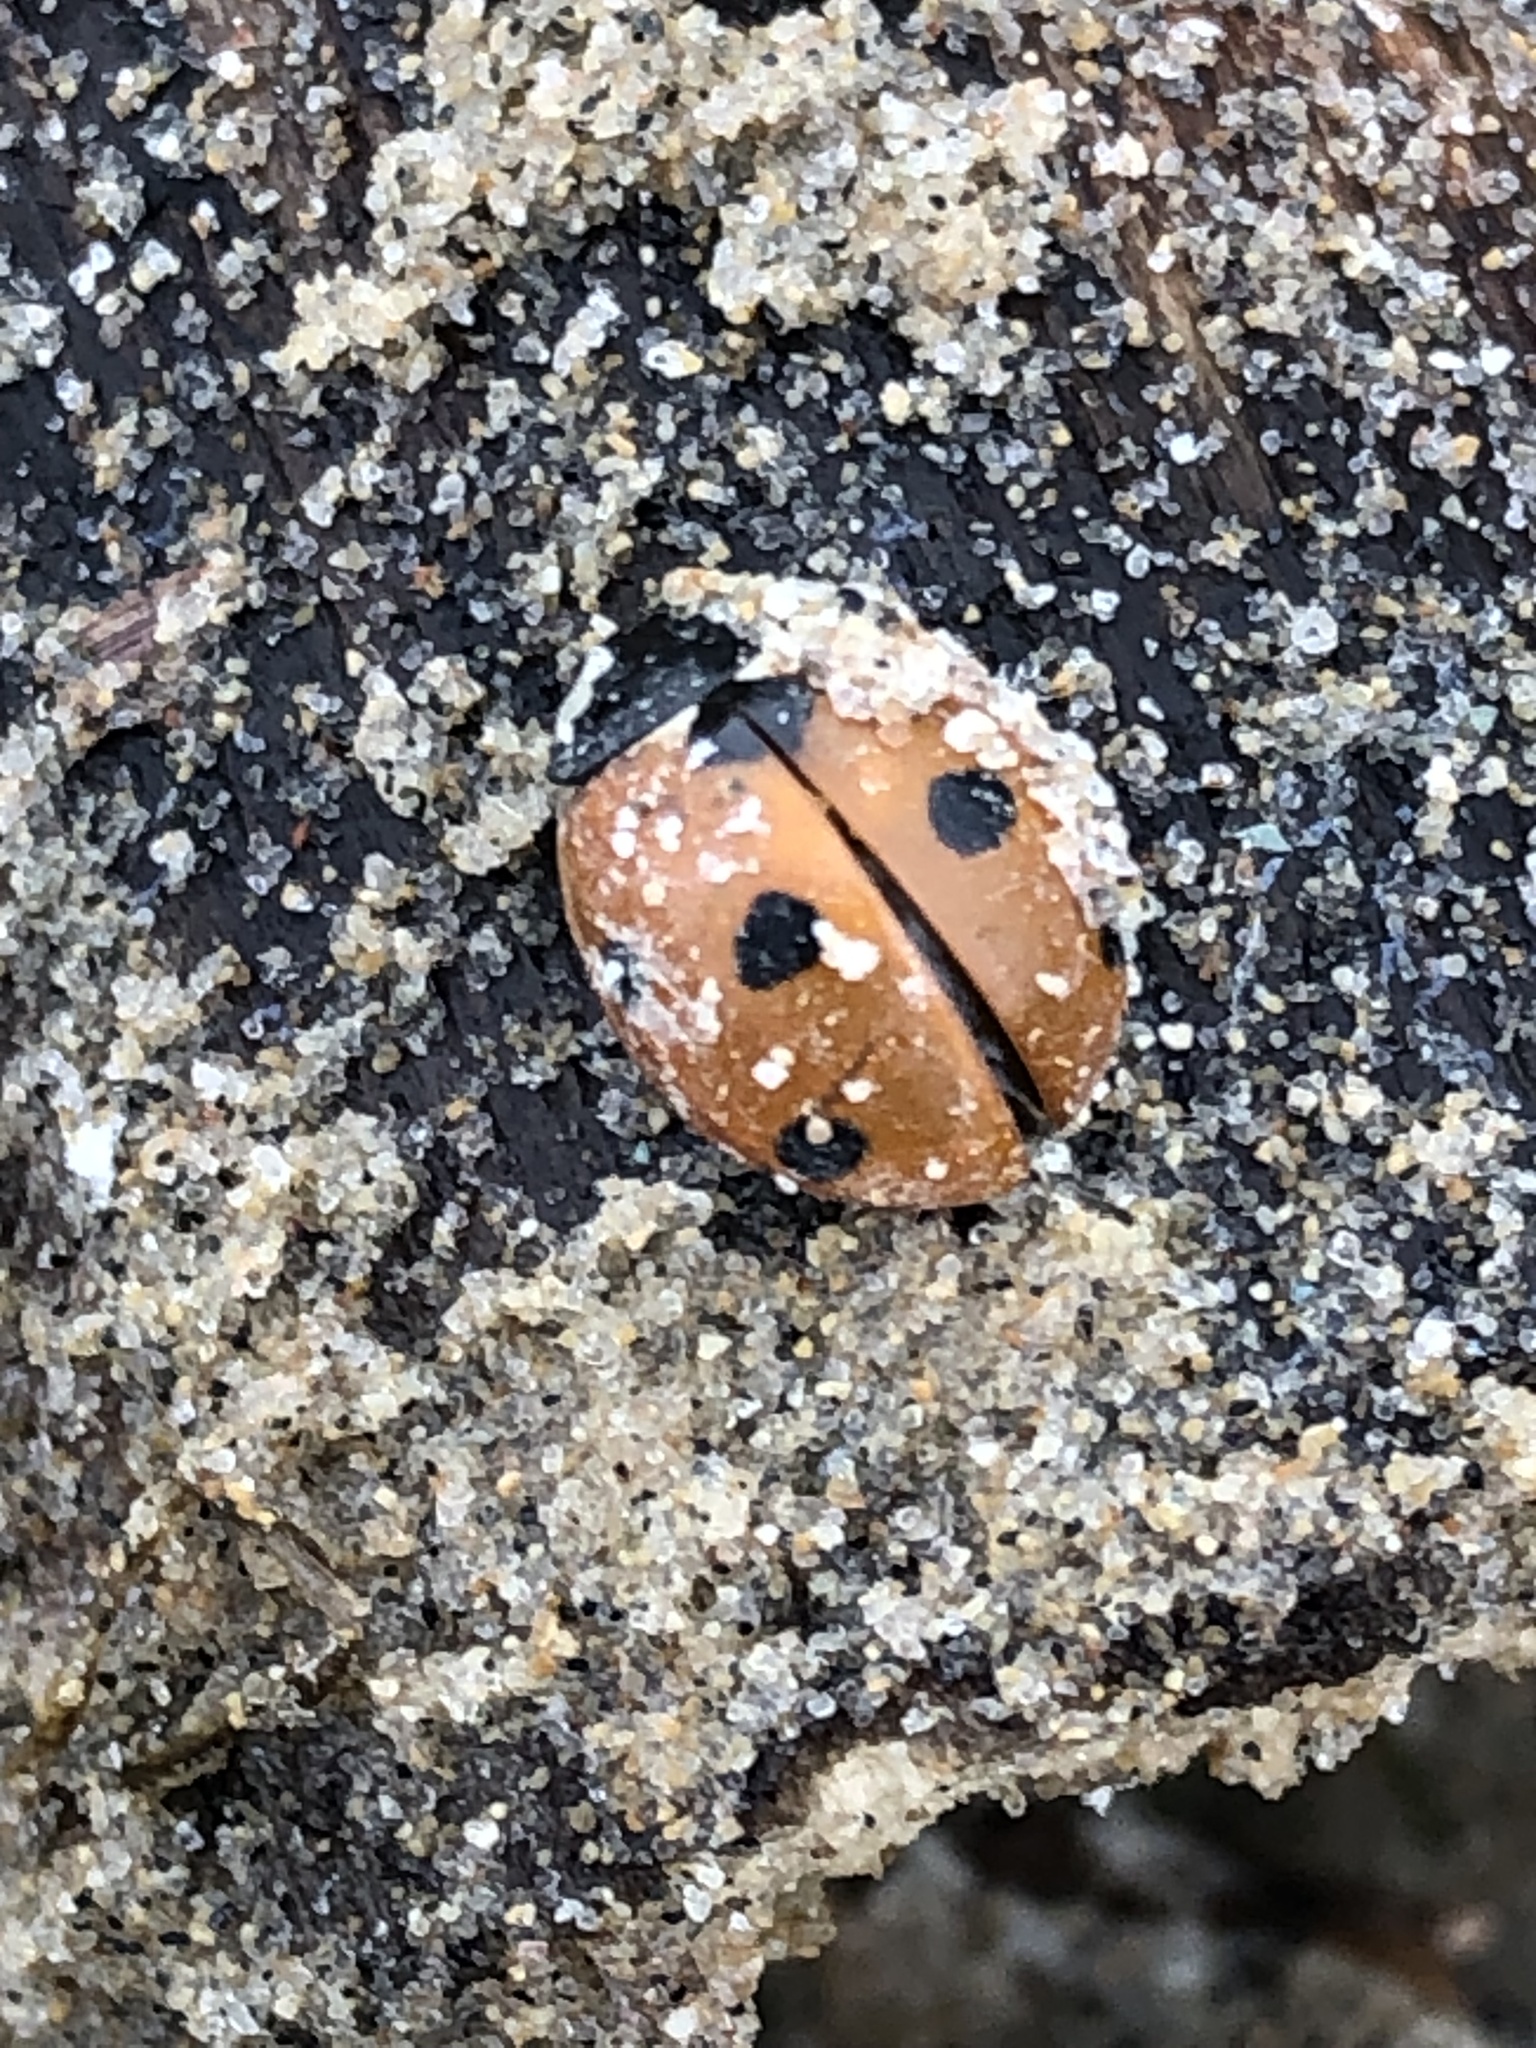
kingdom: Animalia
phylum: Arthropoda
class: Insecta
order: Coleoptera
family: Coccinellidae
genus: Coccinella
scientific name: Coccinella septempunctata
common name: Sevenspotted lady beetle
